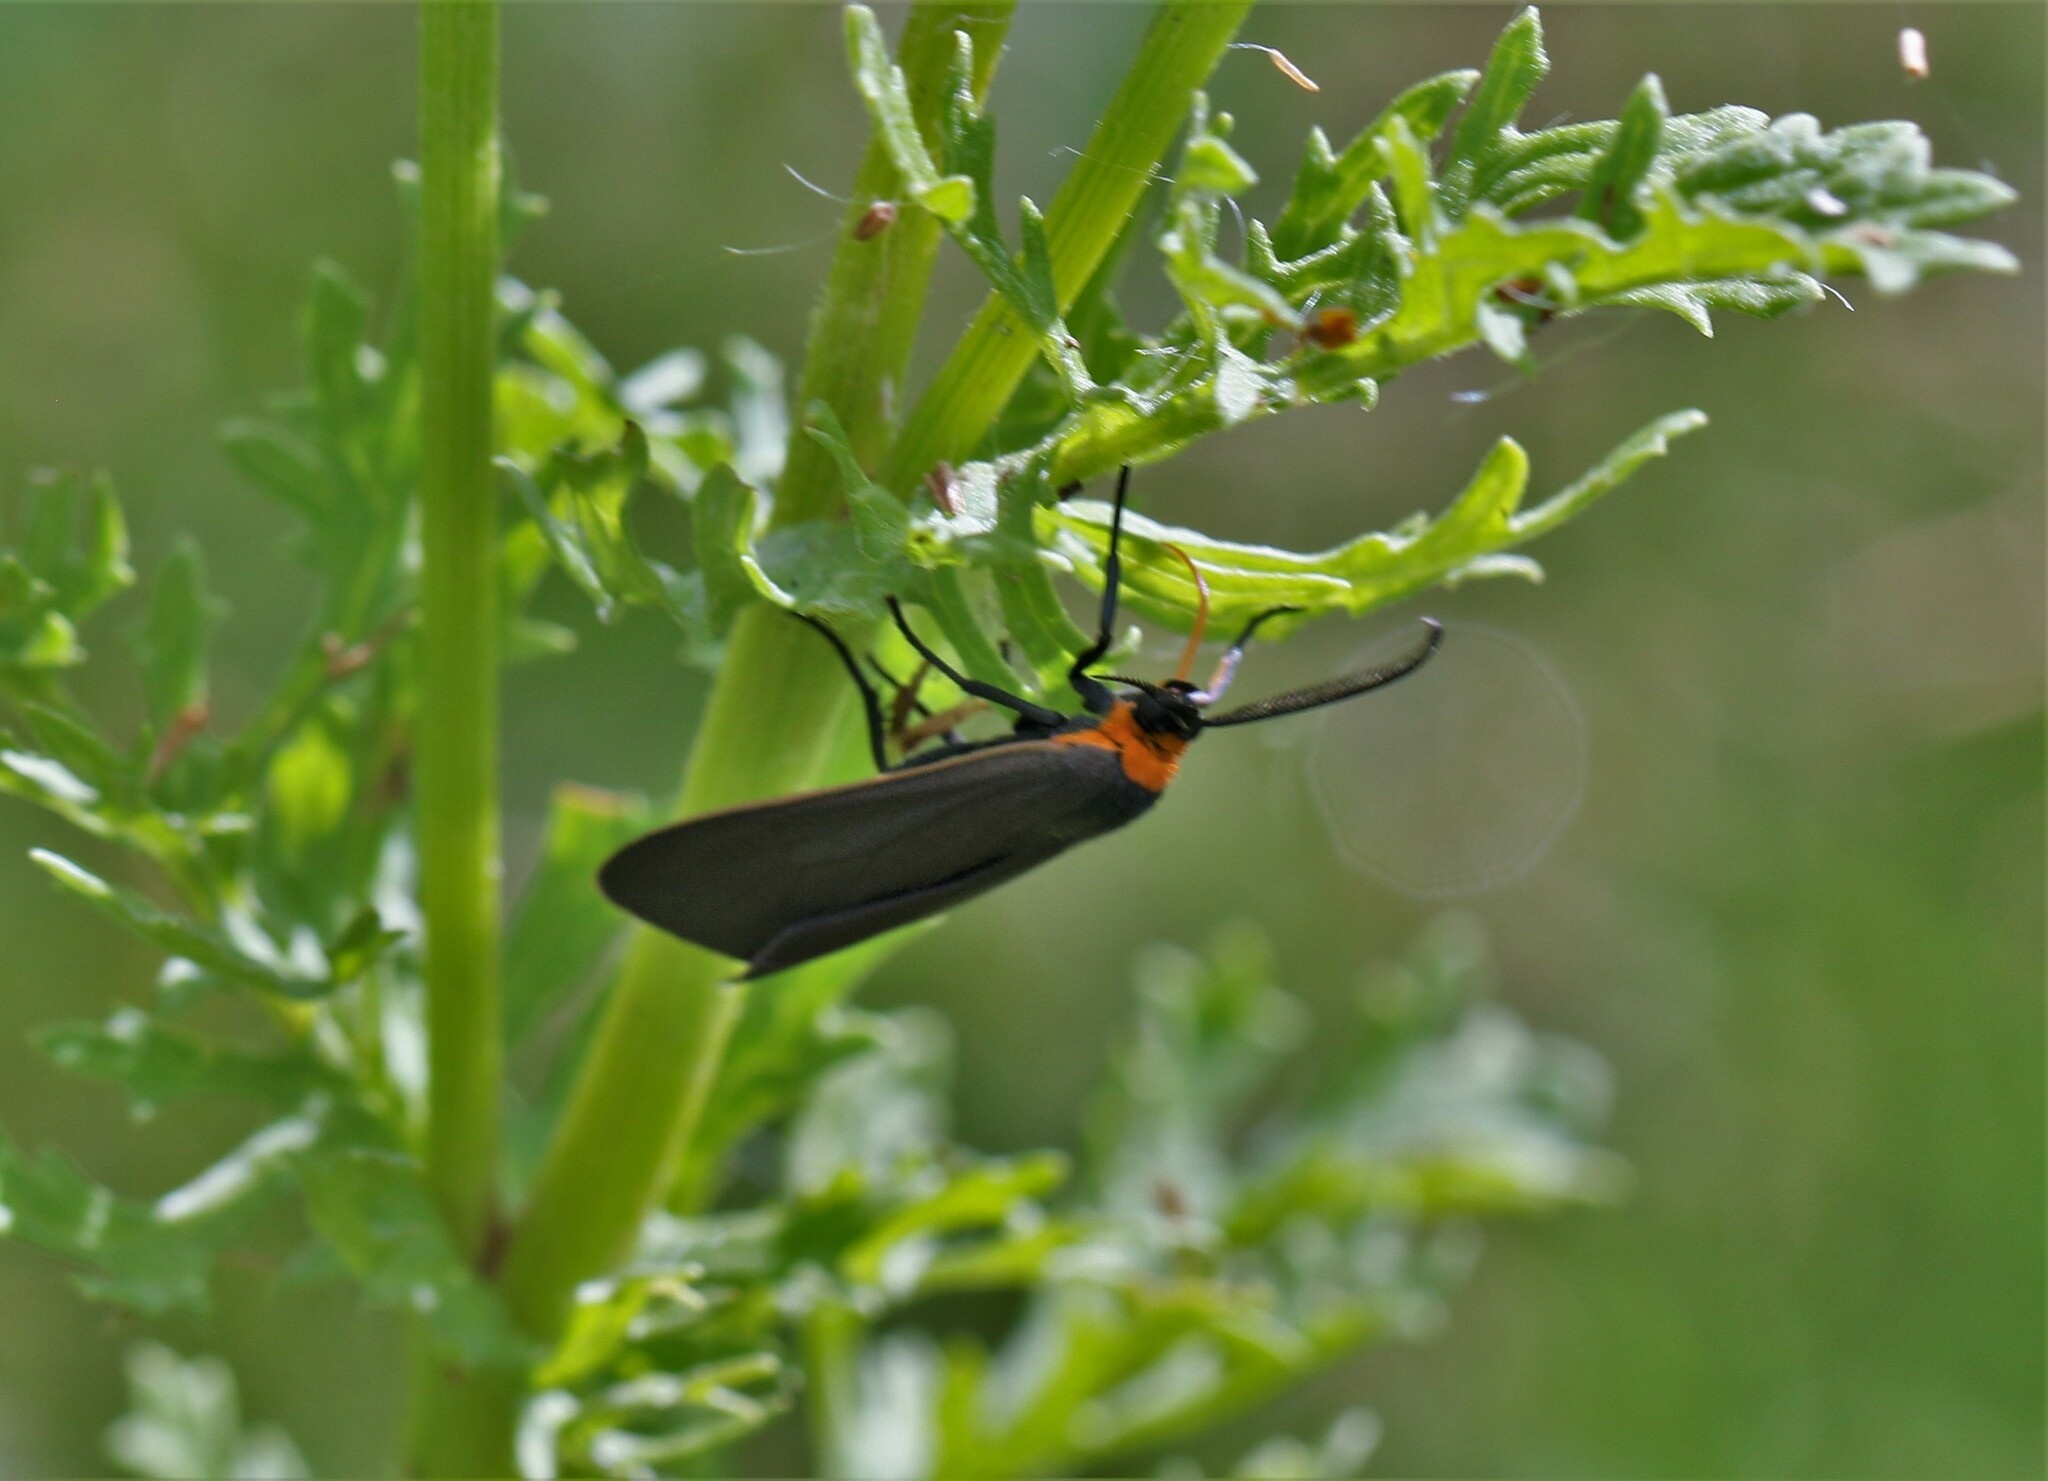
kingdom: Animalia
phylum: Arthropoda
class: Insecta
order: Lepidoptera
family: Erebidae
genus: Cisseps
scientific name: Cisseps fulvicollis
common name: Yellow-collared scape moth
